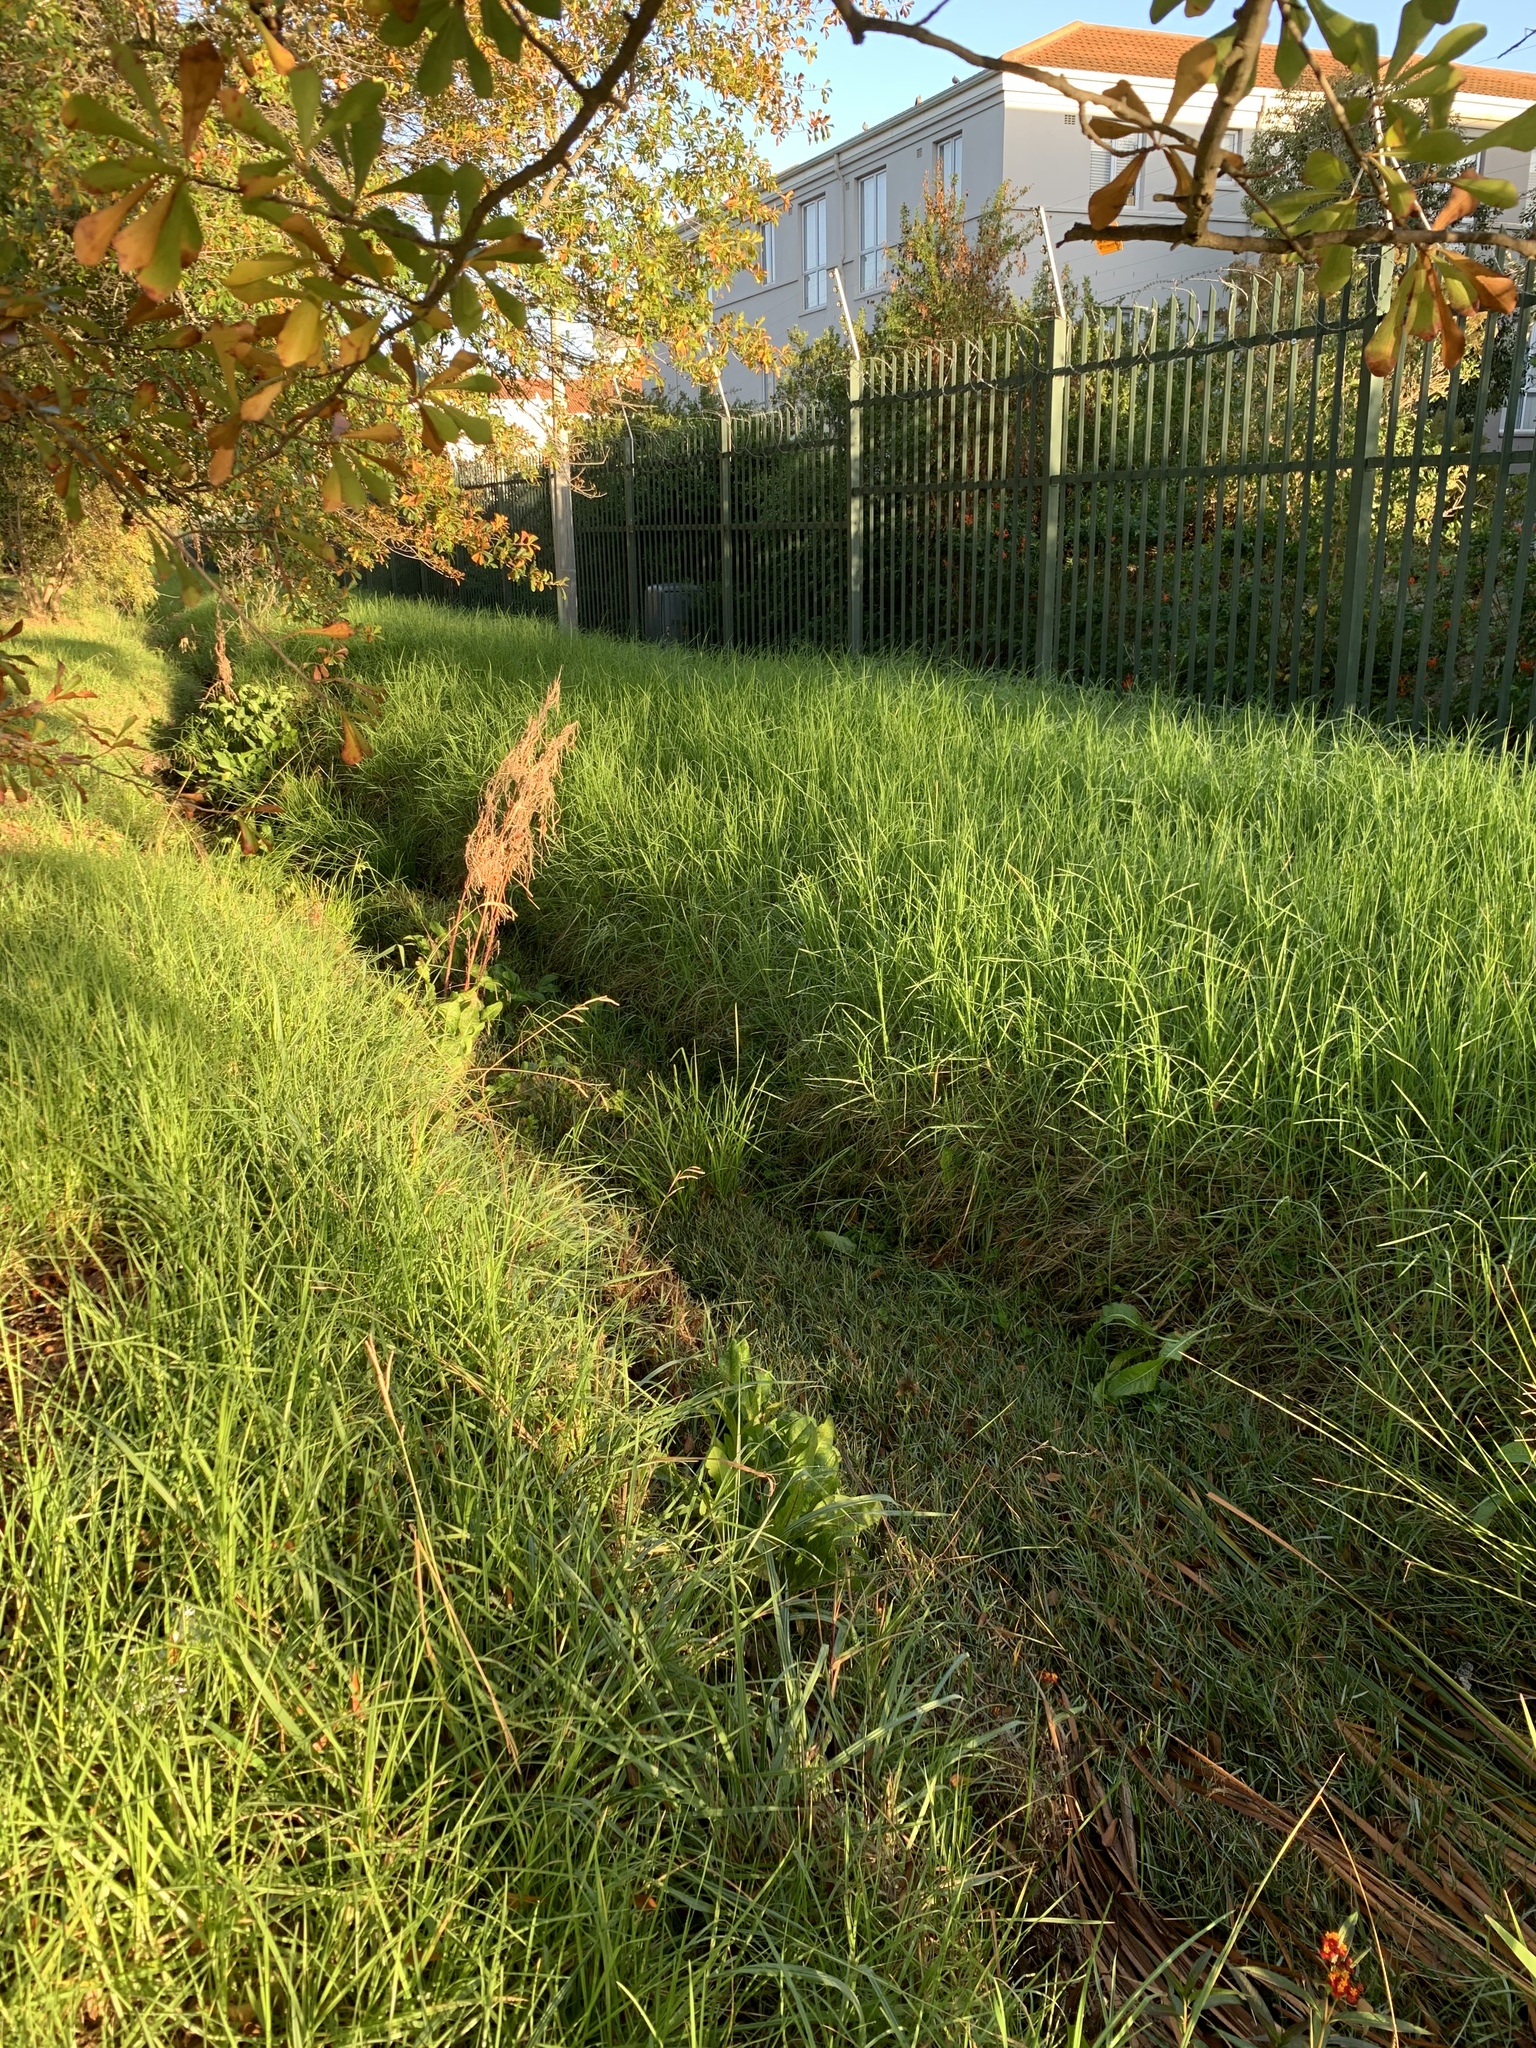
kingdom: Plantae
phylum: Tracheophyta
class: Liliopsida
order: Poales
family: Poaceae
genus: Cenchrus
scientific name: Cenchrus clandestinus
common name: Kikuyugrass
